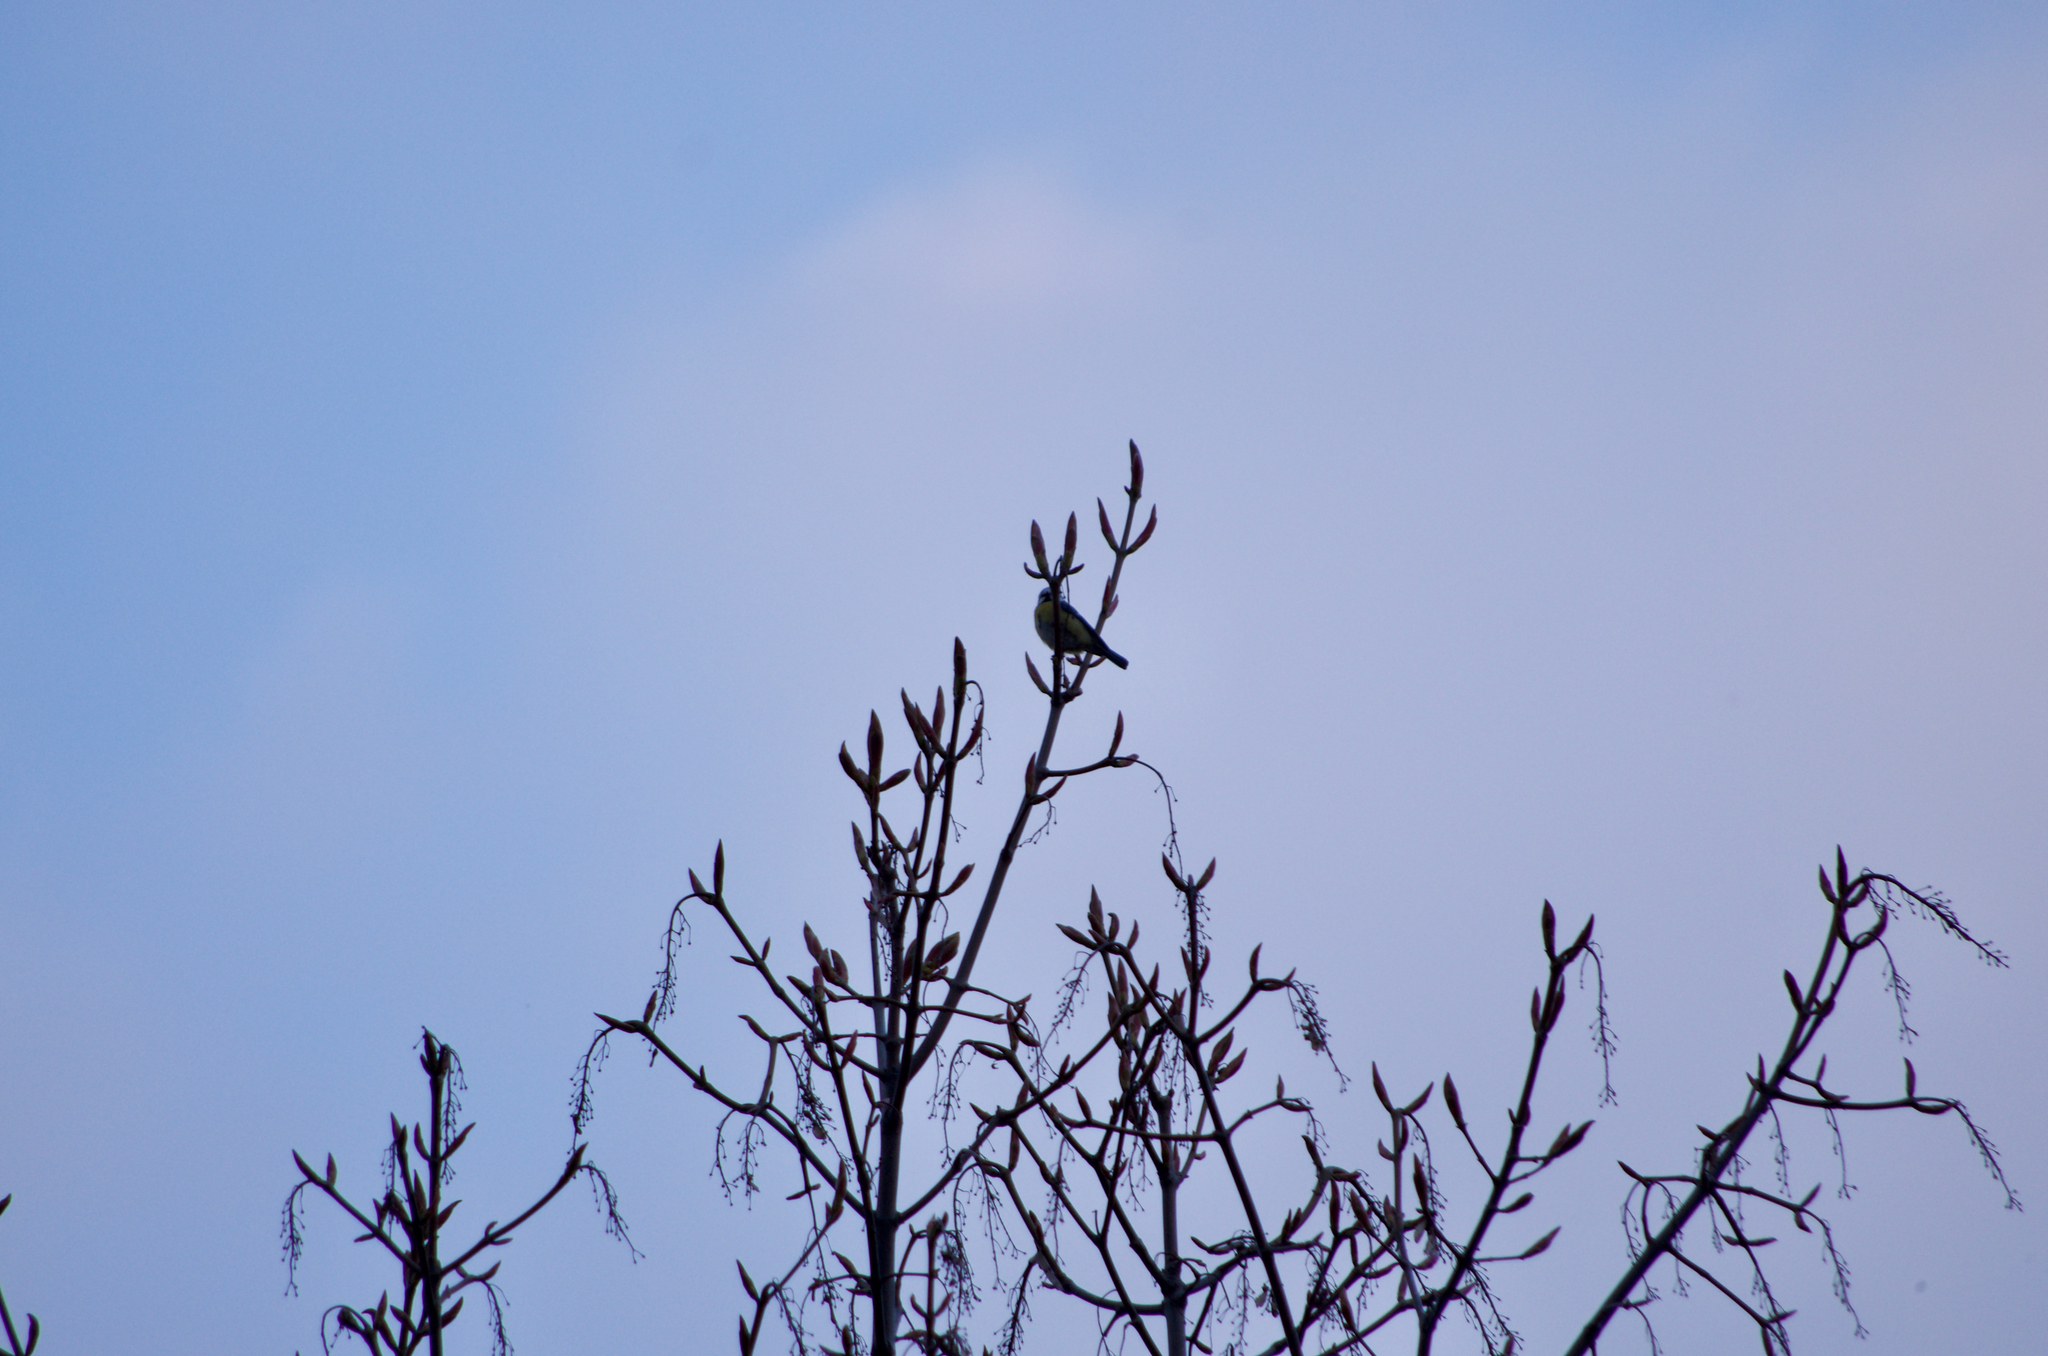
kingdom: Animalia
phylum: Chordata
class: Aves
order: Passeriformes
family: Paridae
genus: Cyanistes
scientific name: Cyanistes caeruleus
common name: Eurasian blue tit
